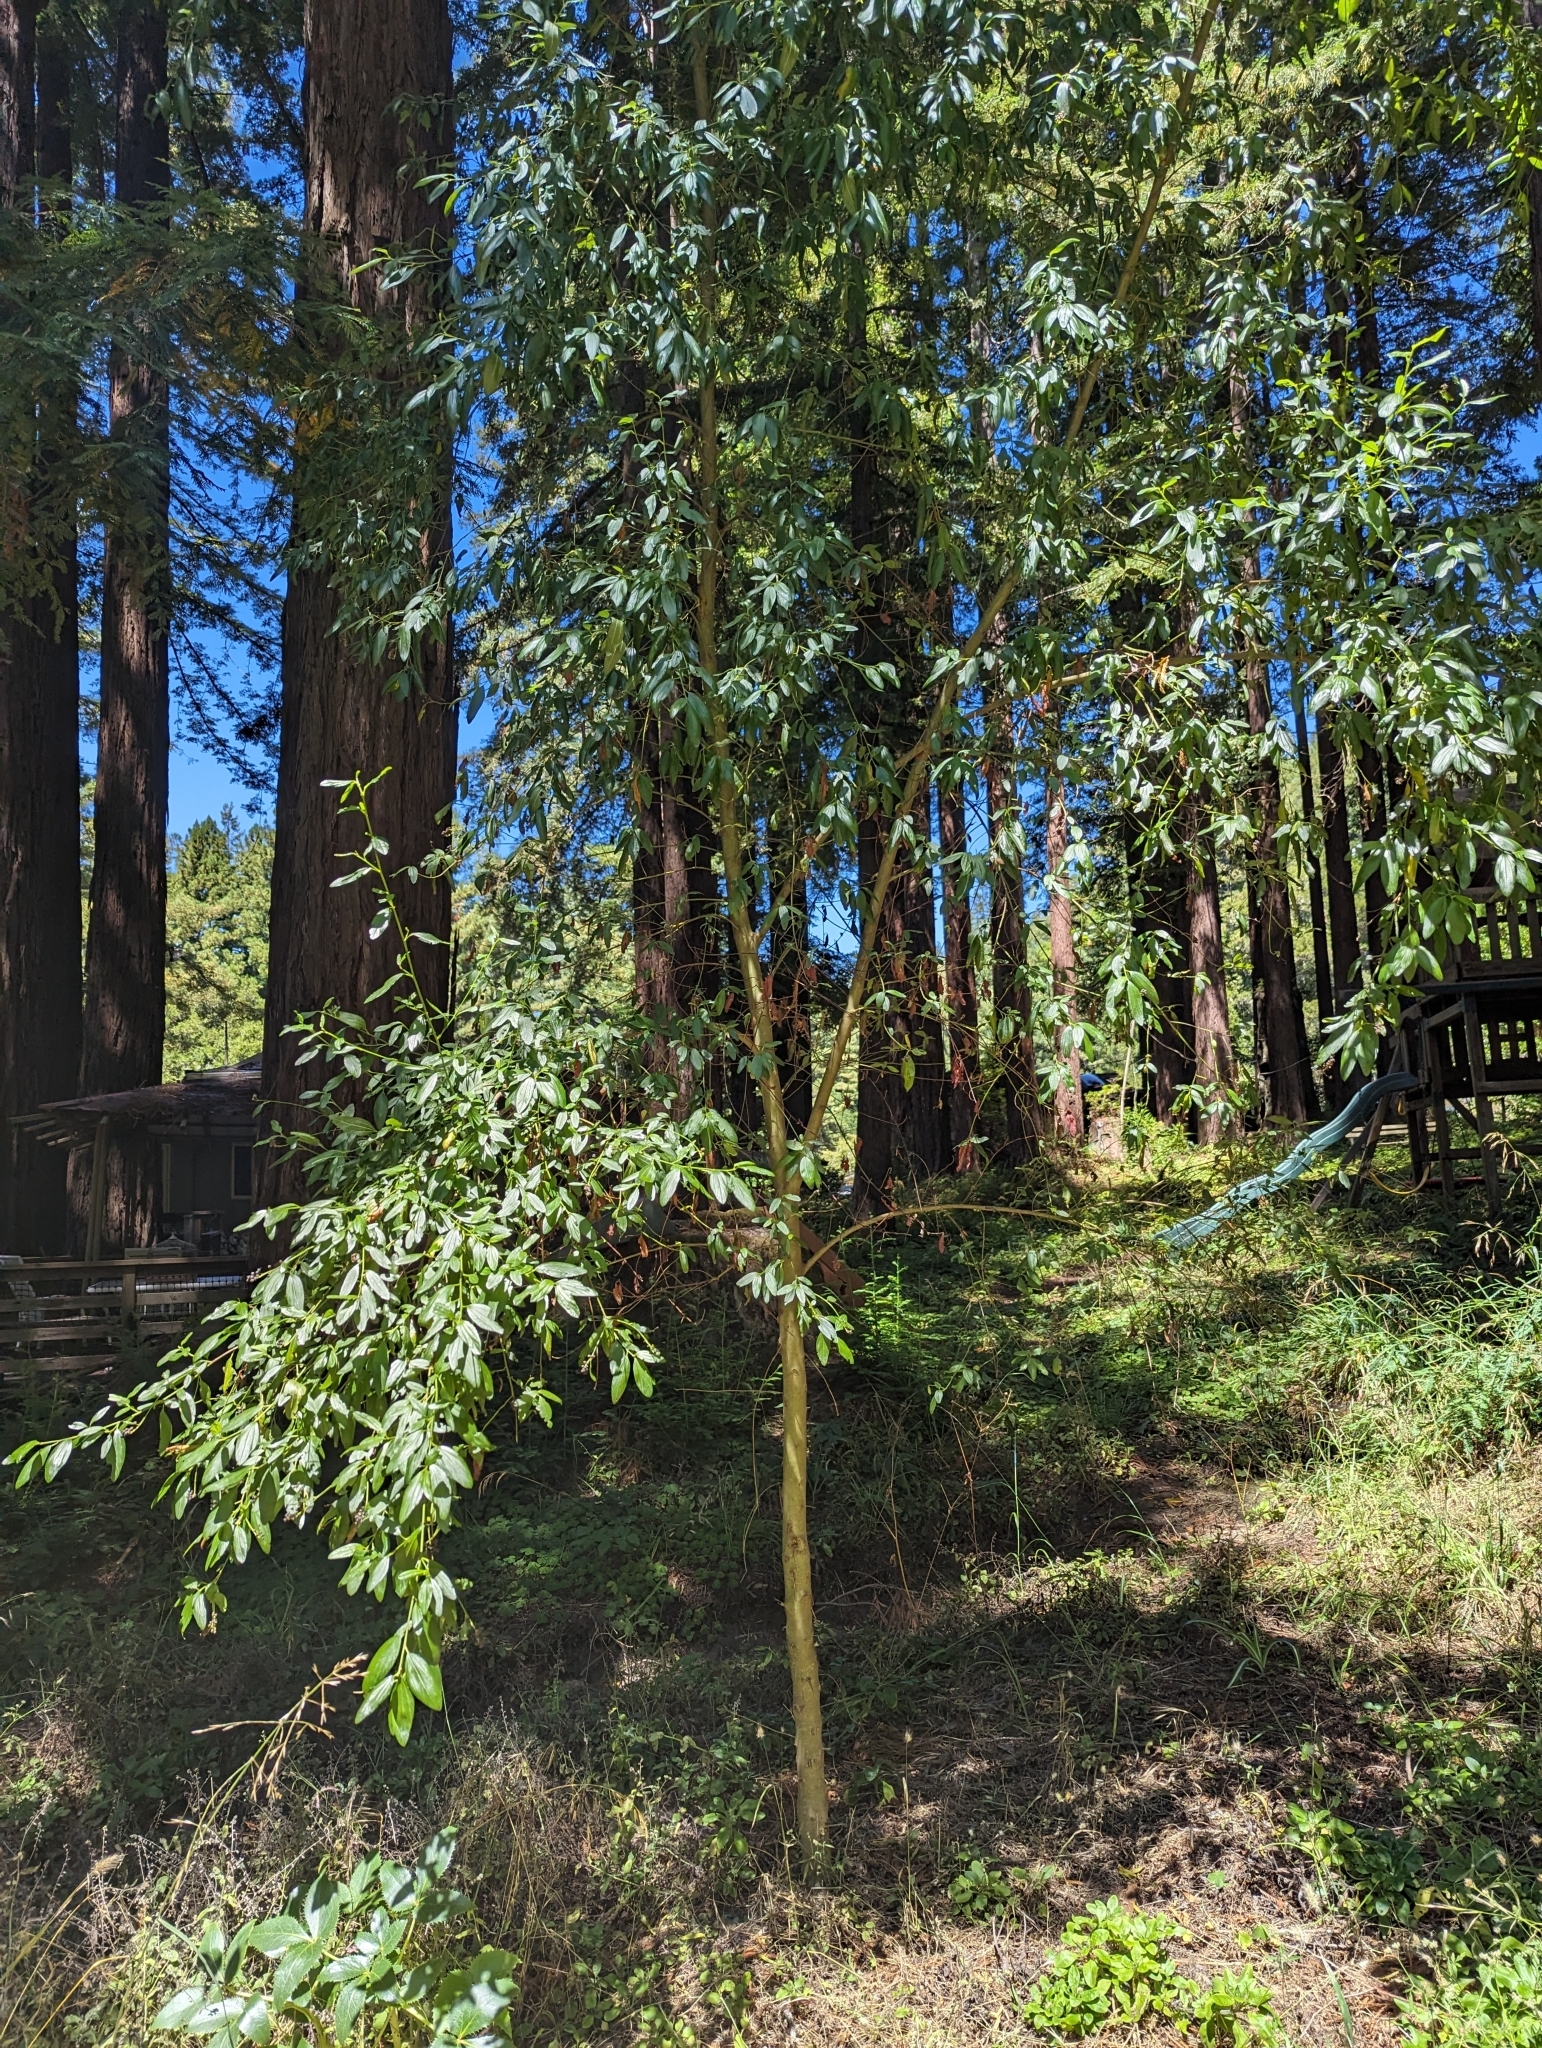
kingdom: Plantae
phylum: Tracheophyta
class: Magnoliopsida
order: Rosales
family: Rhamnaceae
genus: Ceanothus
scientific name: Ceanothus thyrsiflorus
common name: California-lilac
